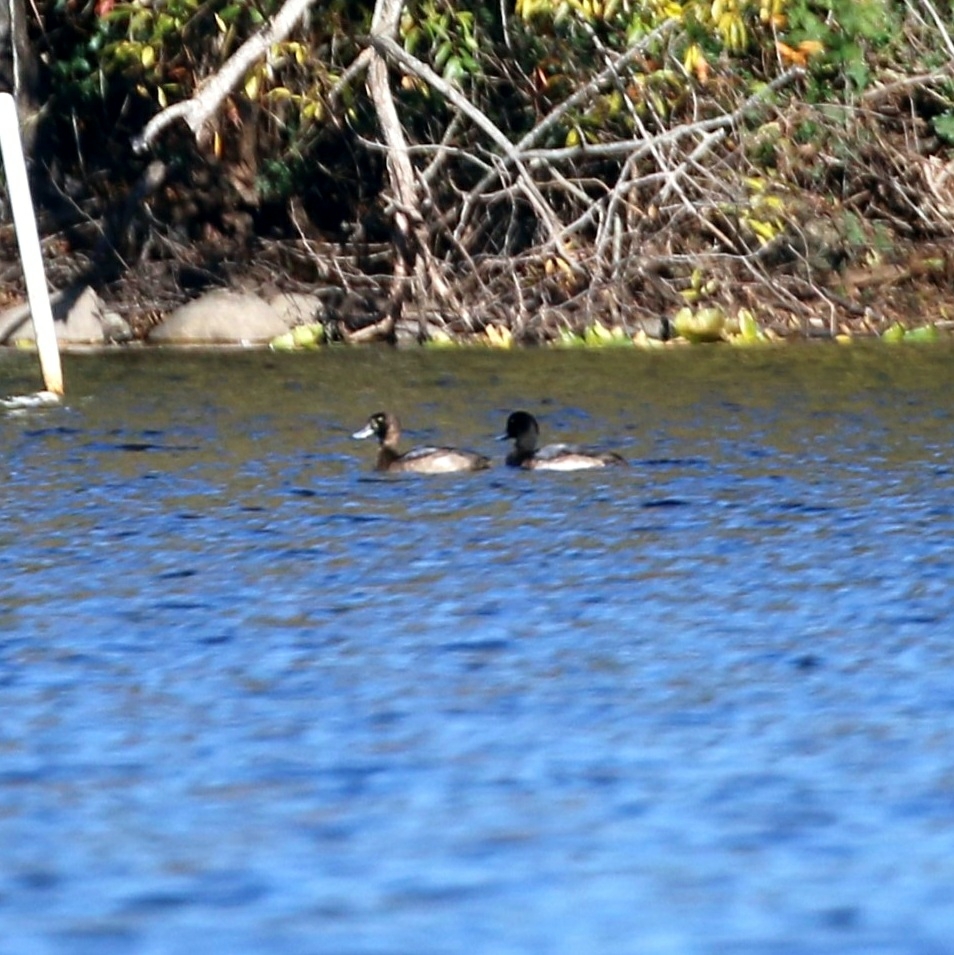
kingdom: Animalia
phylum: Chordata
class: Aves
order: Anseriformes
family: Anatidae
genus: Aythya
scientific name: Aythya marila
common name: Greater scaup
